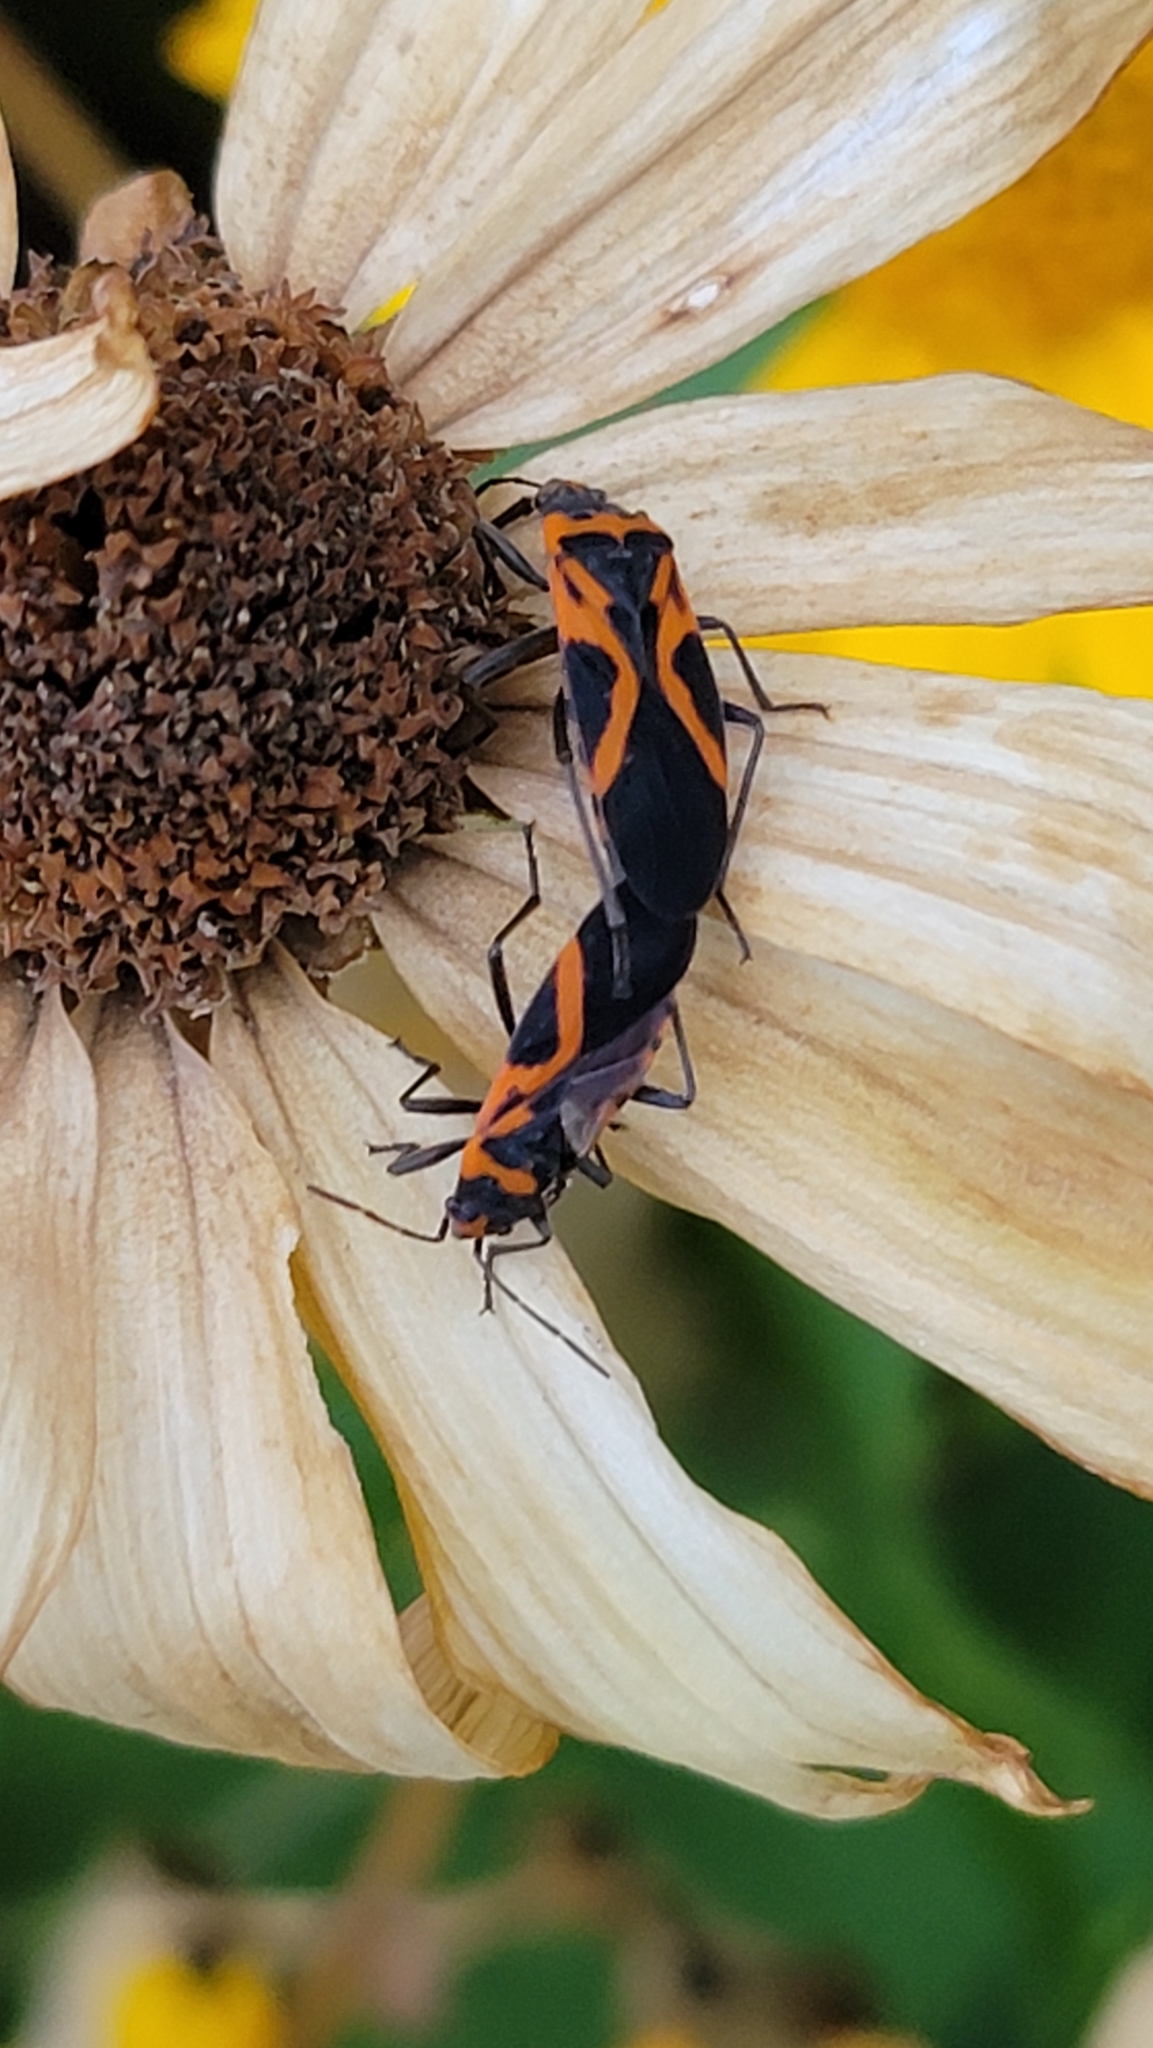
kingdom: Animalia
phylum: Arthropoda
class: Insecta
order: Hemiptera
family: Lygaeidae
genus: Lygaeus
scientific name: Lygaeus turcicus
